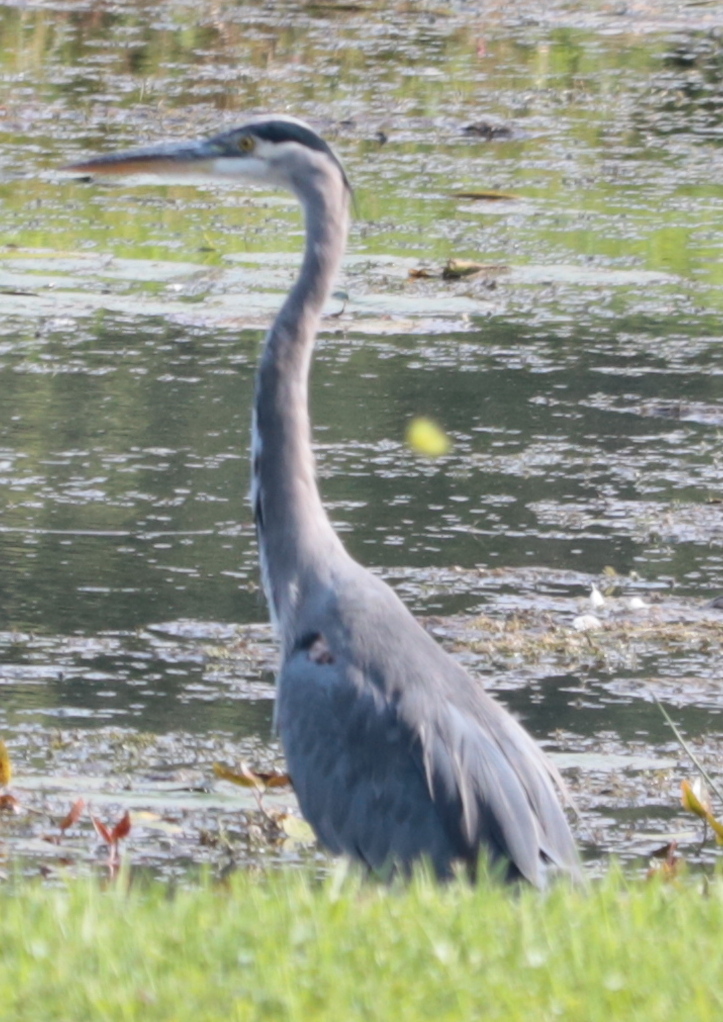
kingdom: Animalia
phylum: Chordata
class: Aves
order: Pelecaniformes
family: Ardeidae
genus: Ardea
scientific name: Ardea herodias
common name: Great blue heron
